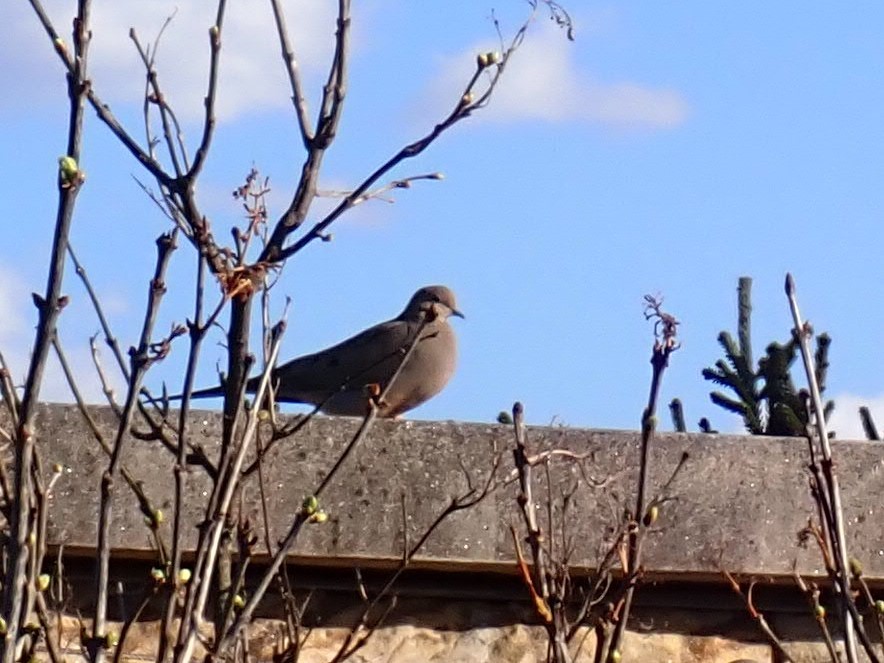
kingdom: Animalia
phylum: Chordata
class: Aves
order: Columbiformes
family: Columbidae
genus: Zenaida
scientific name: Zenaida macroura
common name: Mourning dove
